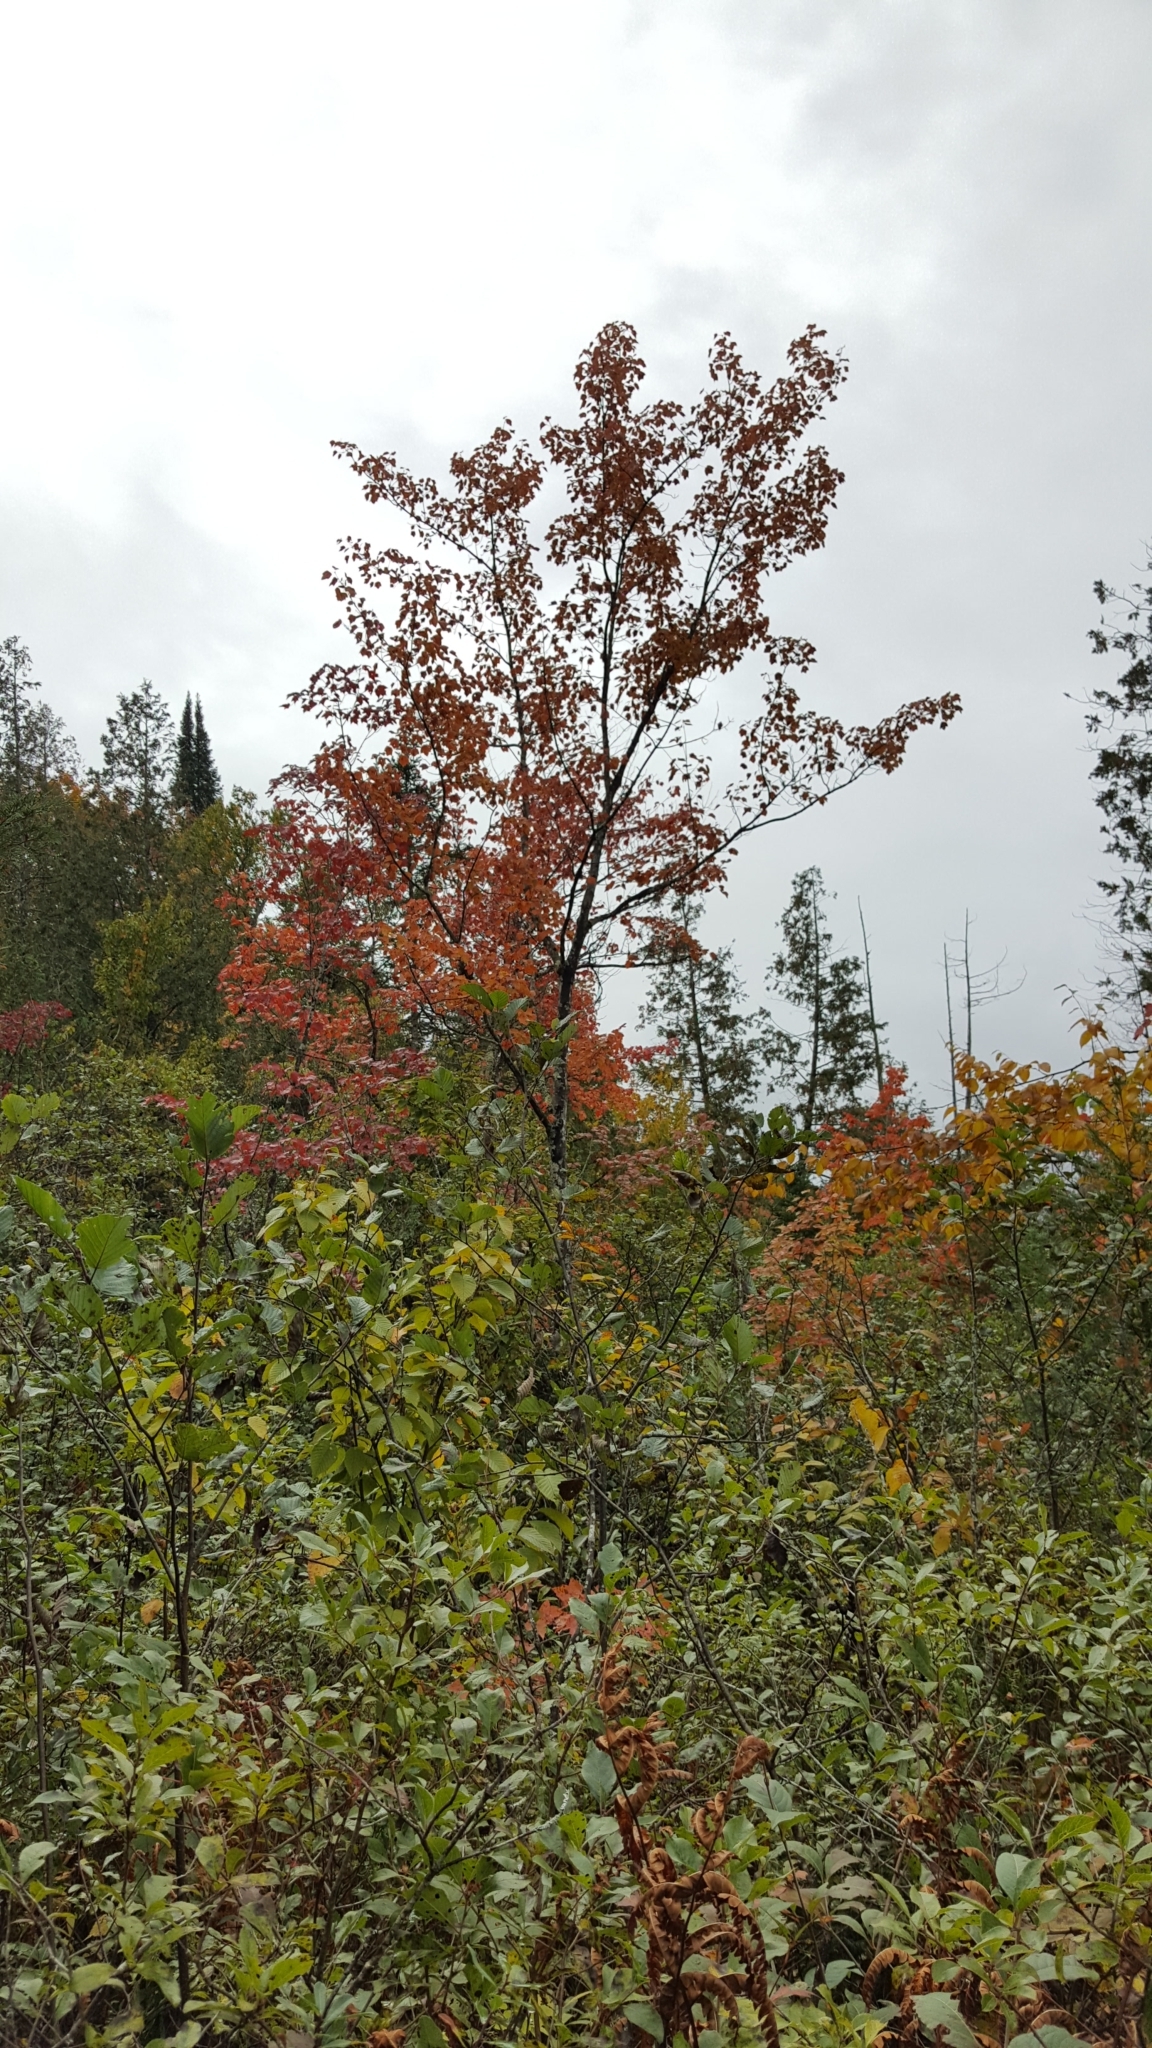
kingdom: Plantae
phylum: Tracheophyta
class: Magnoliopsida
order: Sapindales
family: Sapindaceae
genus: Acer
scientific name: Acer rubrum
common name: Red maple
